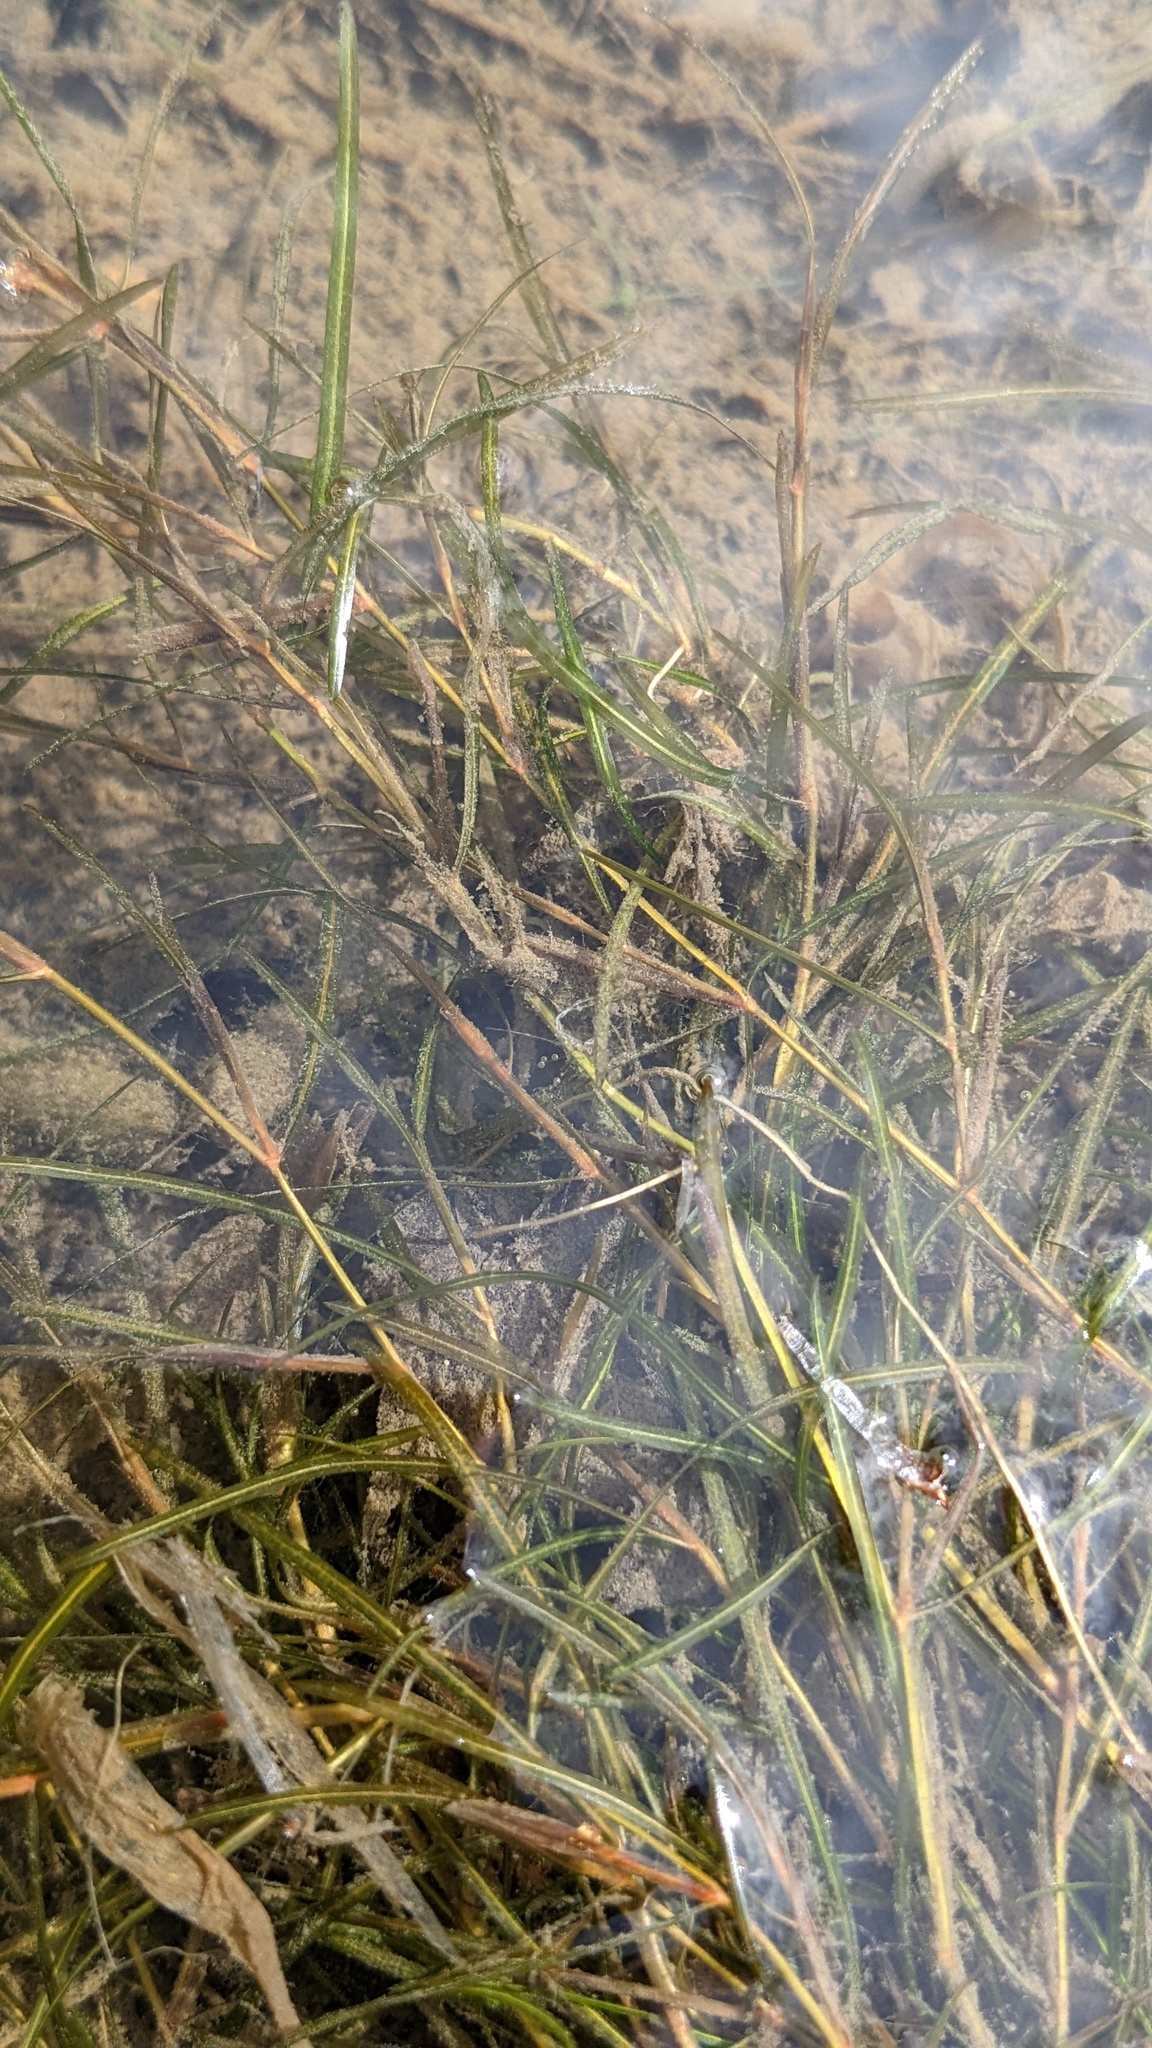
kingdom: Plantae
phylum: Tracheophyta
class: Liliopsida
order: Alismatales
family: Potamogetonaceae
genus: Potamogeton
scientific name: Potamogeton zosteriformis
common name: Eelgrass pondweed
